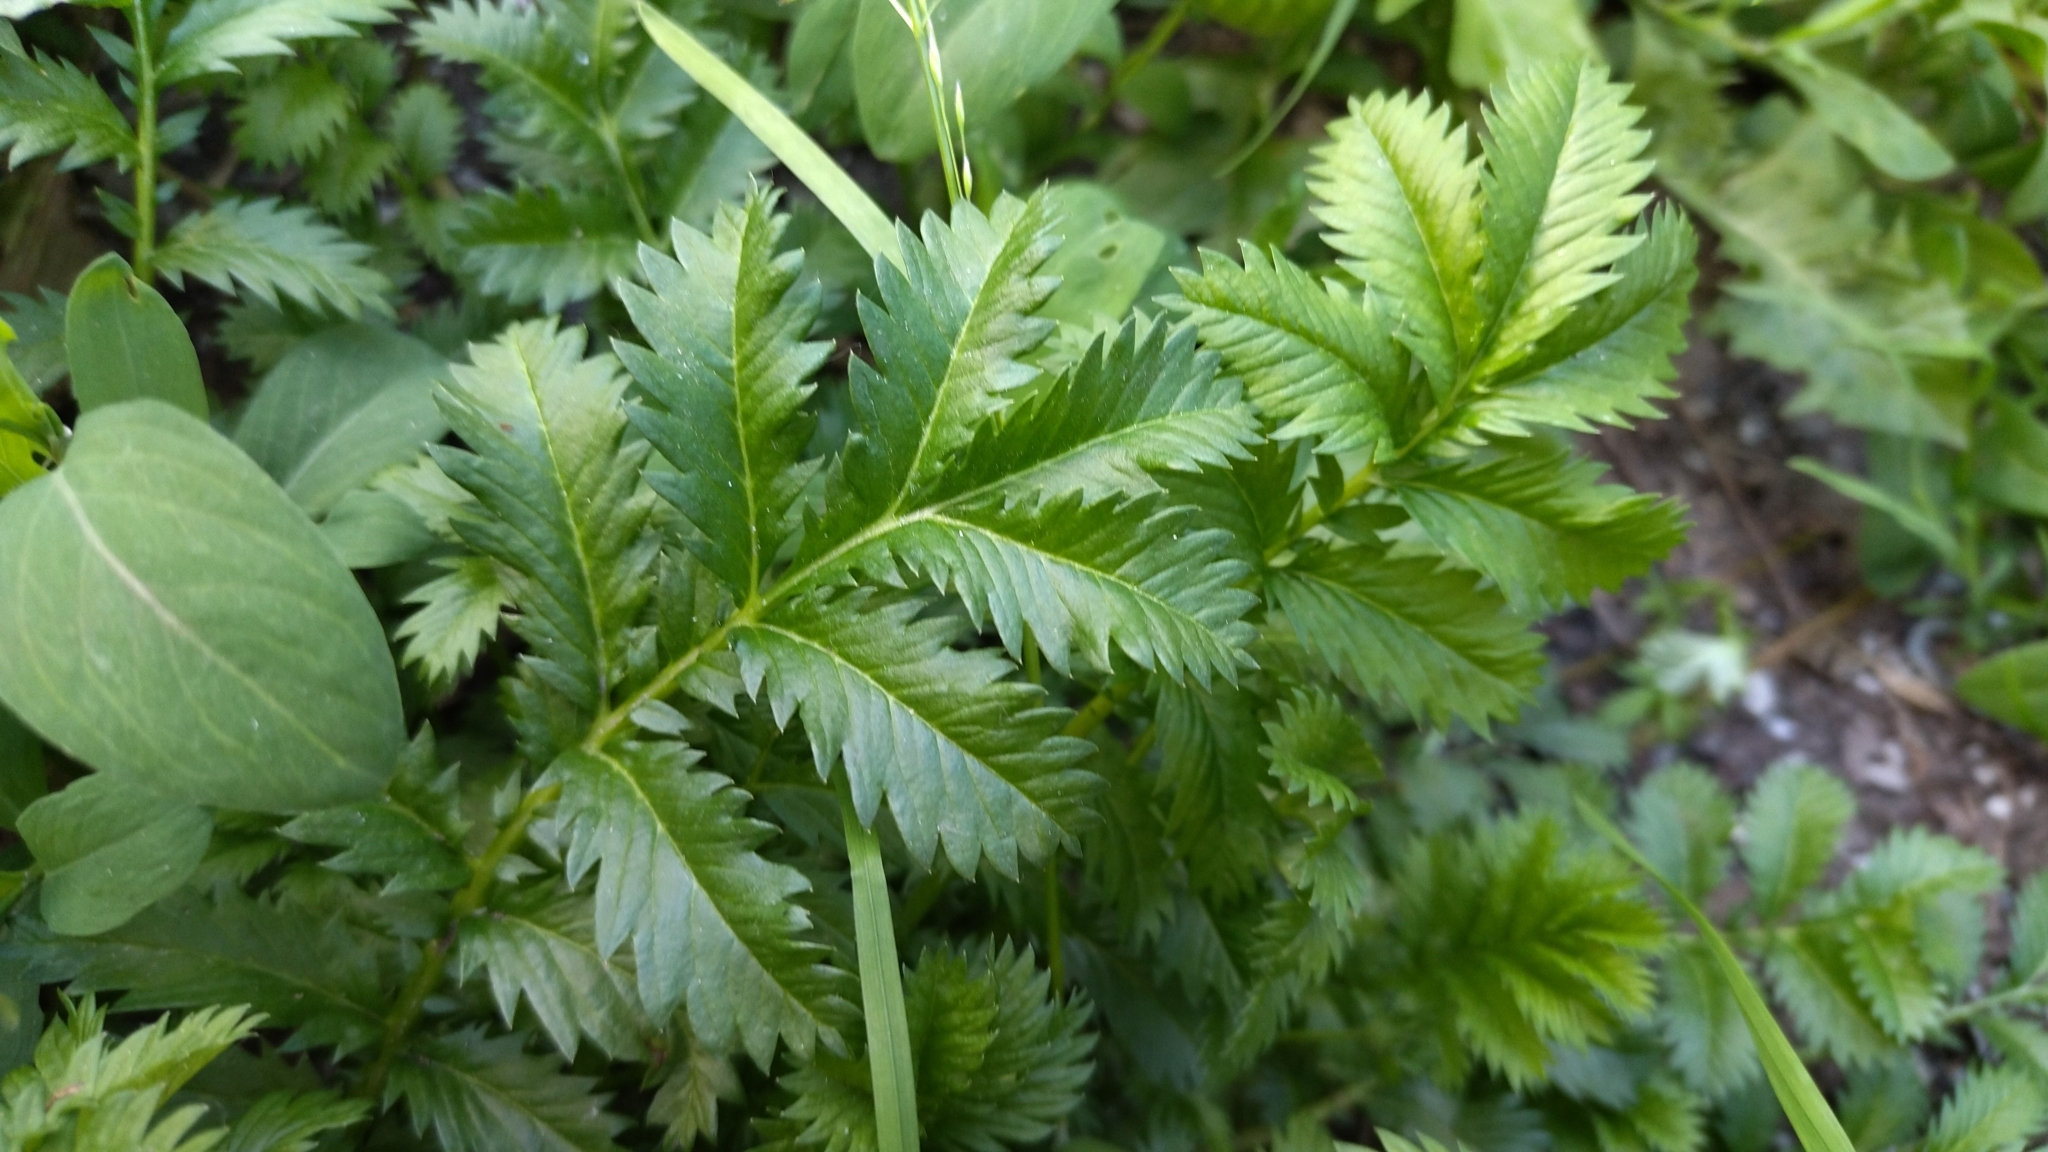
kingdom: Plantae
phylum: Tracheophyta
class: Magnoliopsida
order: Rosales
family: Rosaceae
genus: Argentina
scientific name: Argentina anserina
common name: Common silverweed
